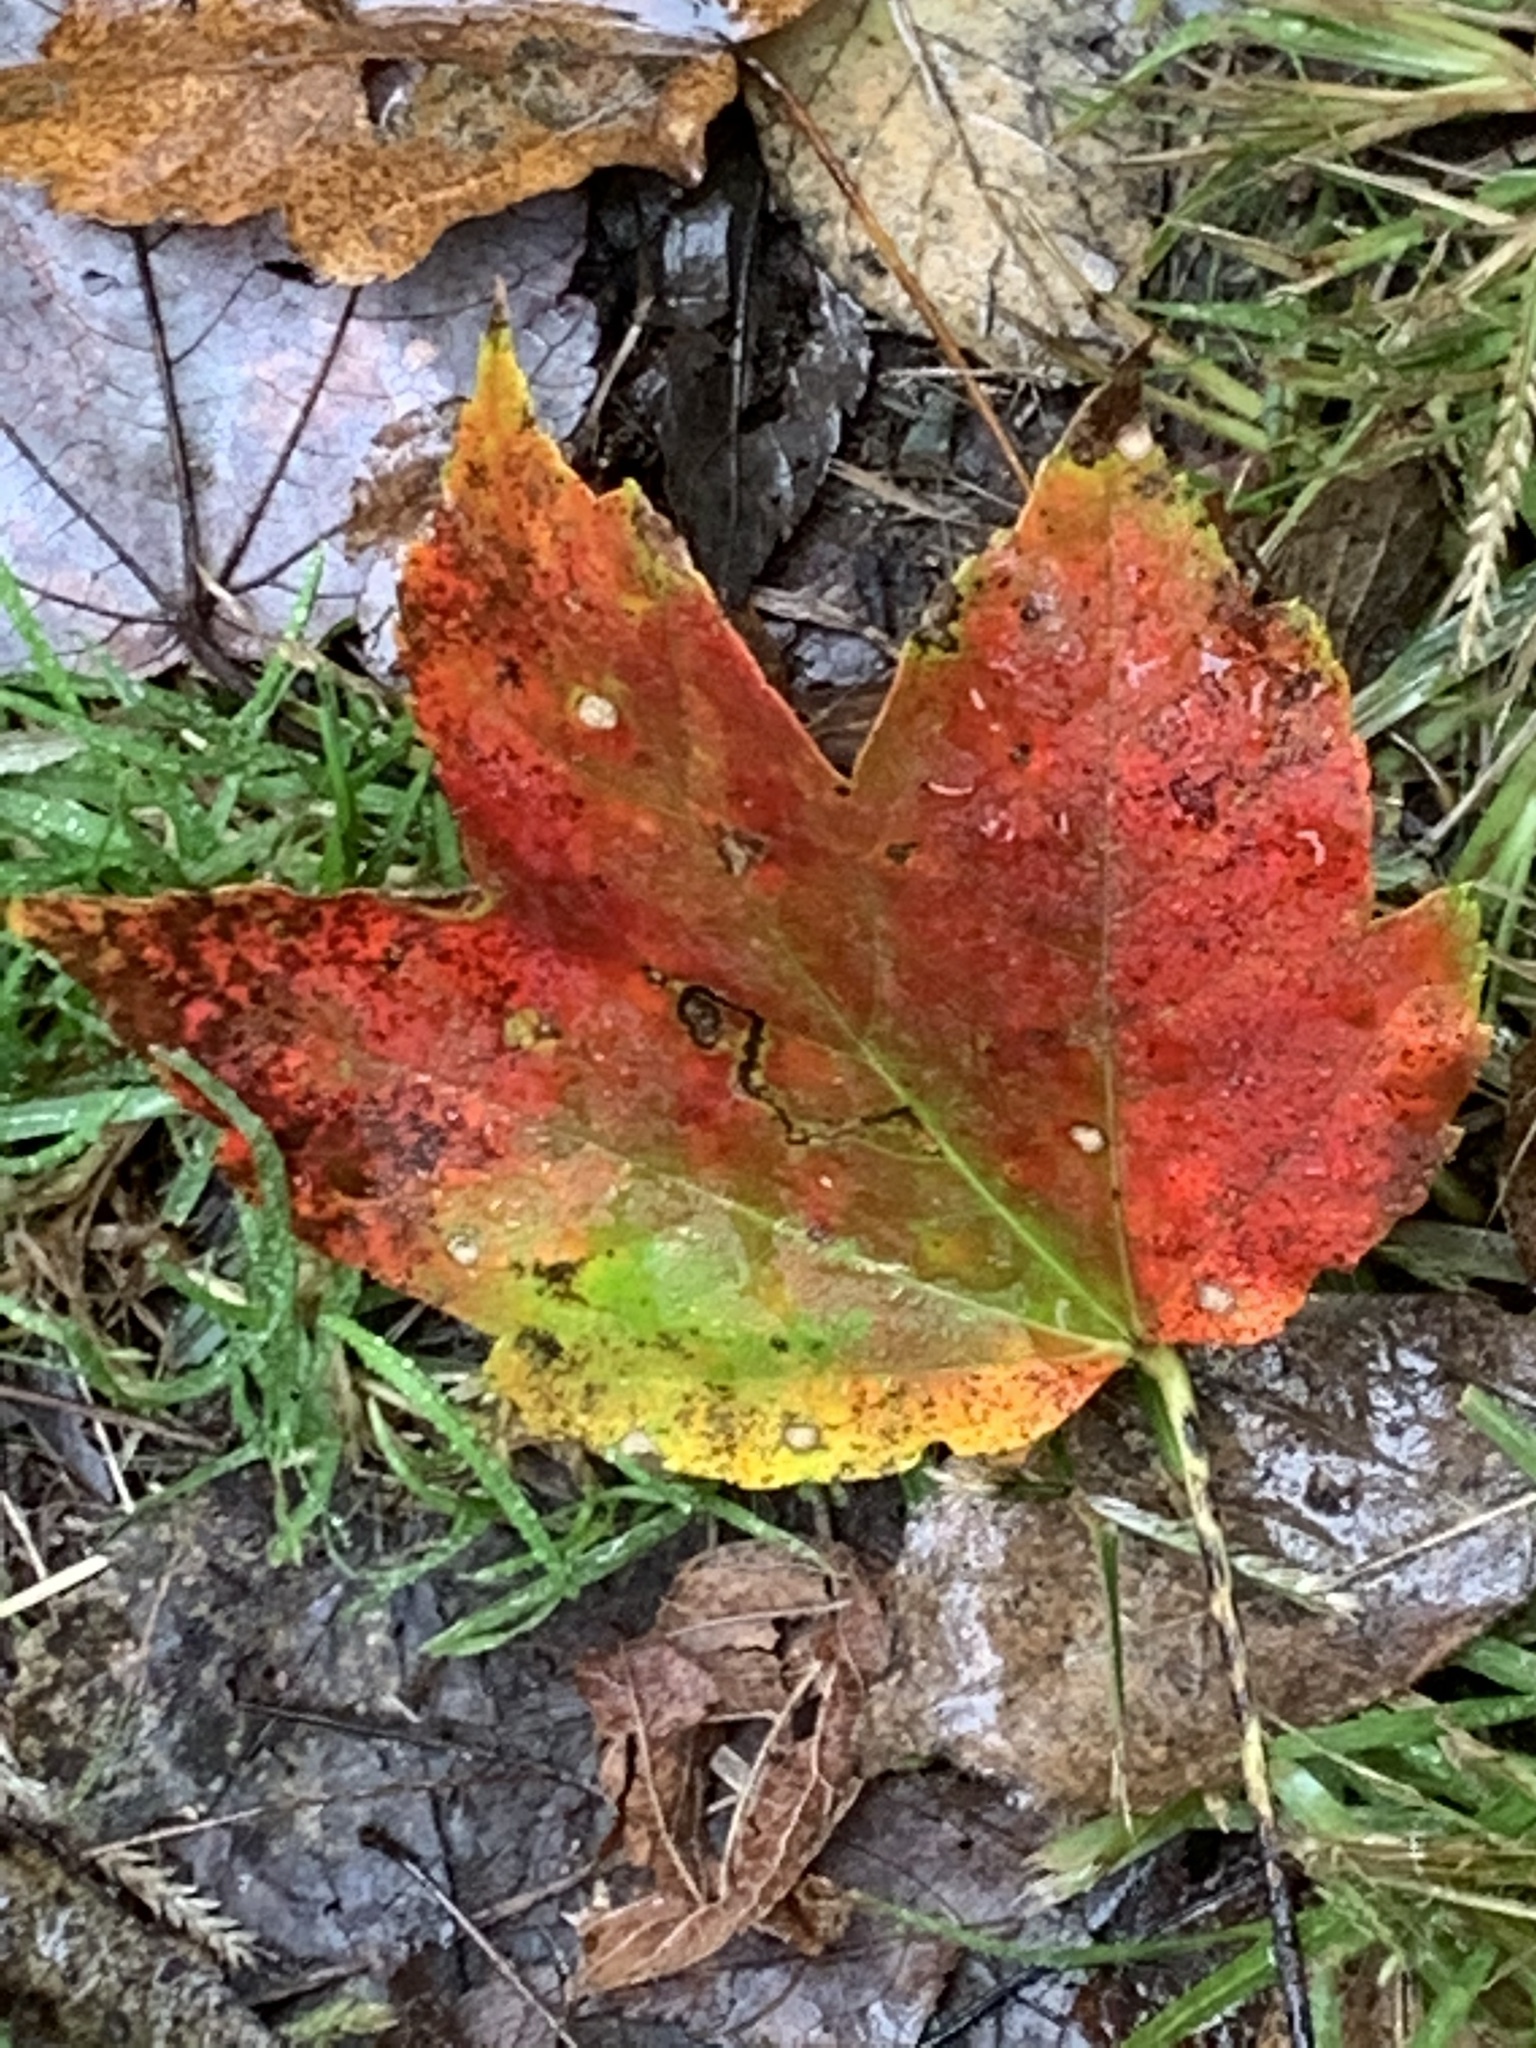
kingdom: Plantae
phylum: Tracheophyta
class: Magnoliopsida
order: Sapindales
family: Sapindaceae
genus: Acer
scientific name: Acer rubrum
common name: Red maple
